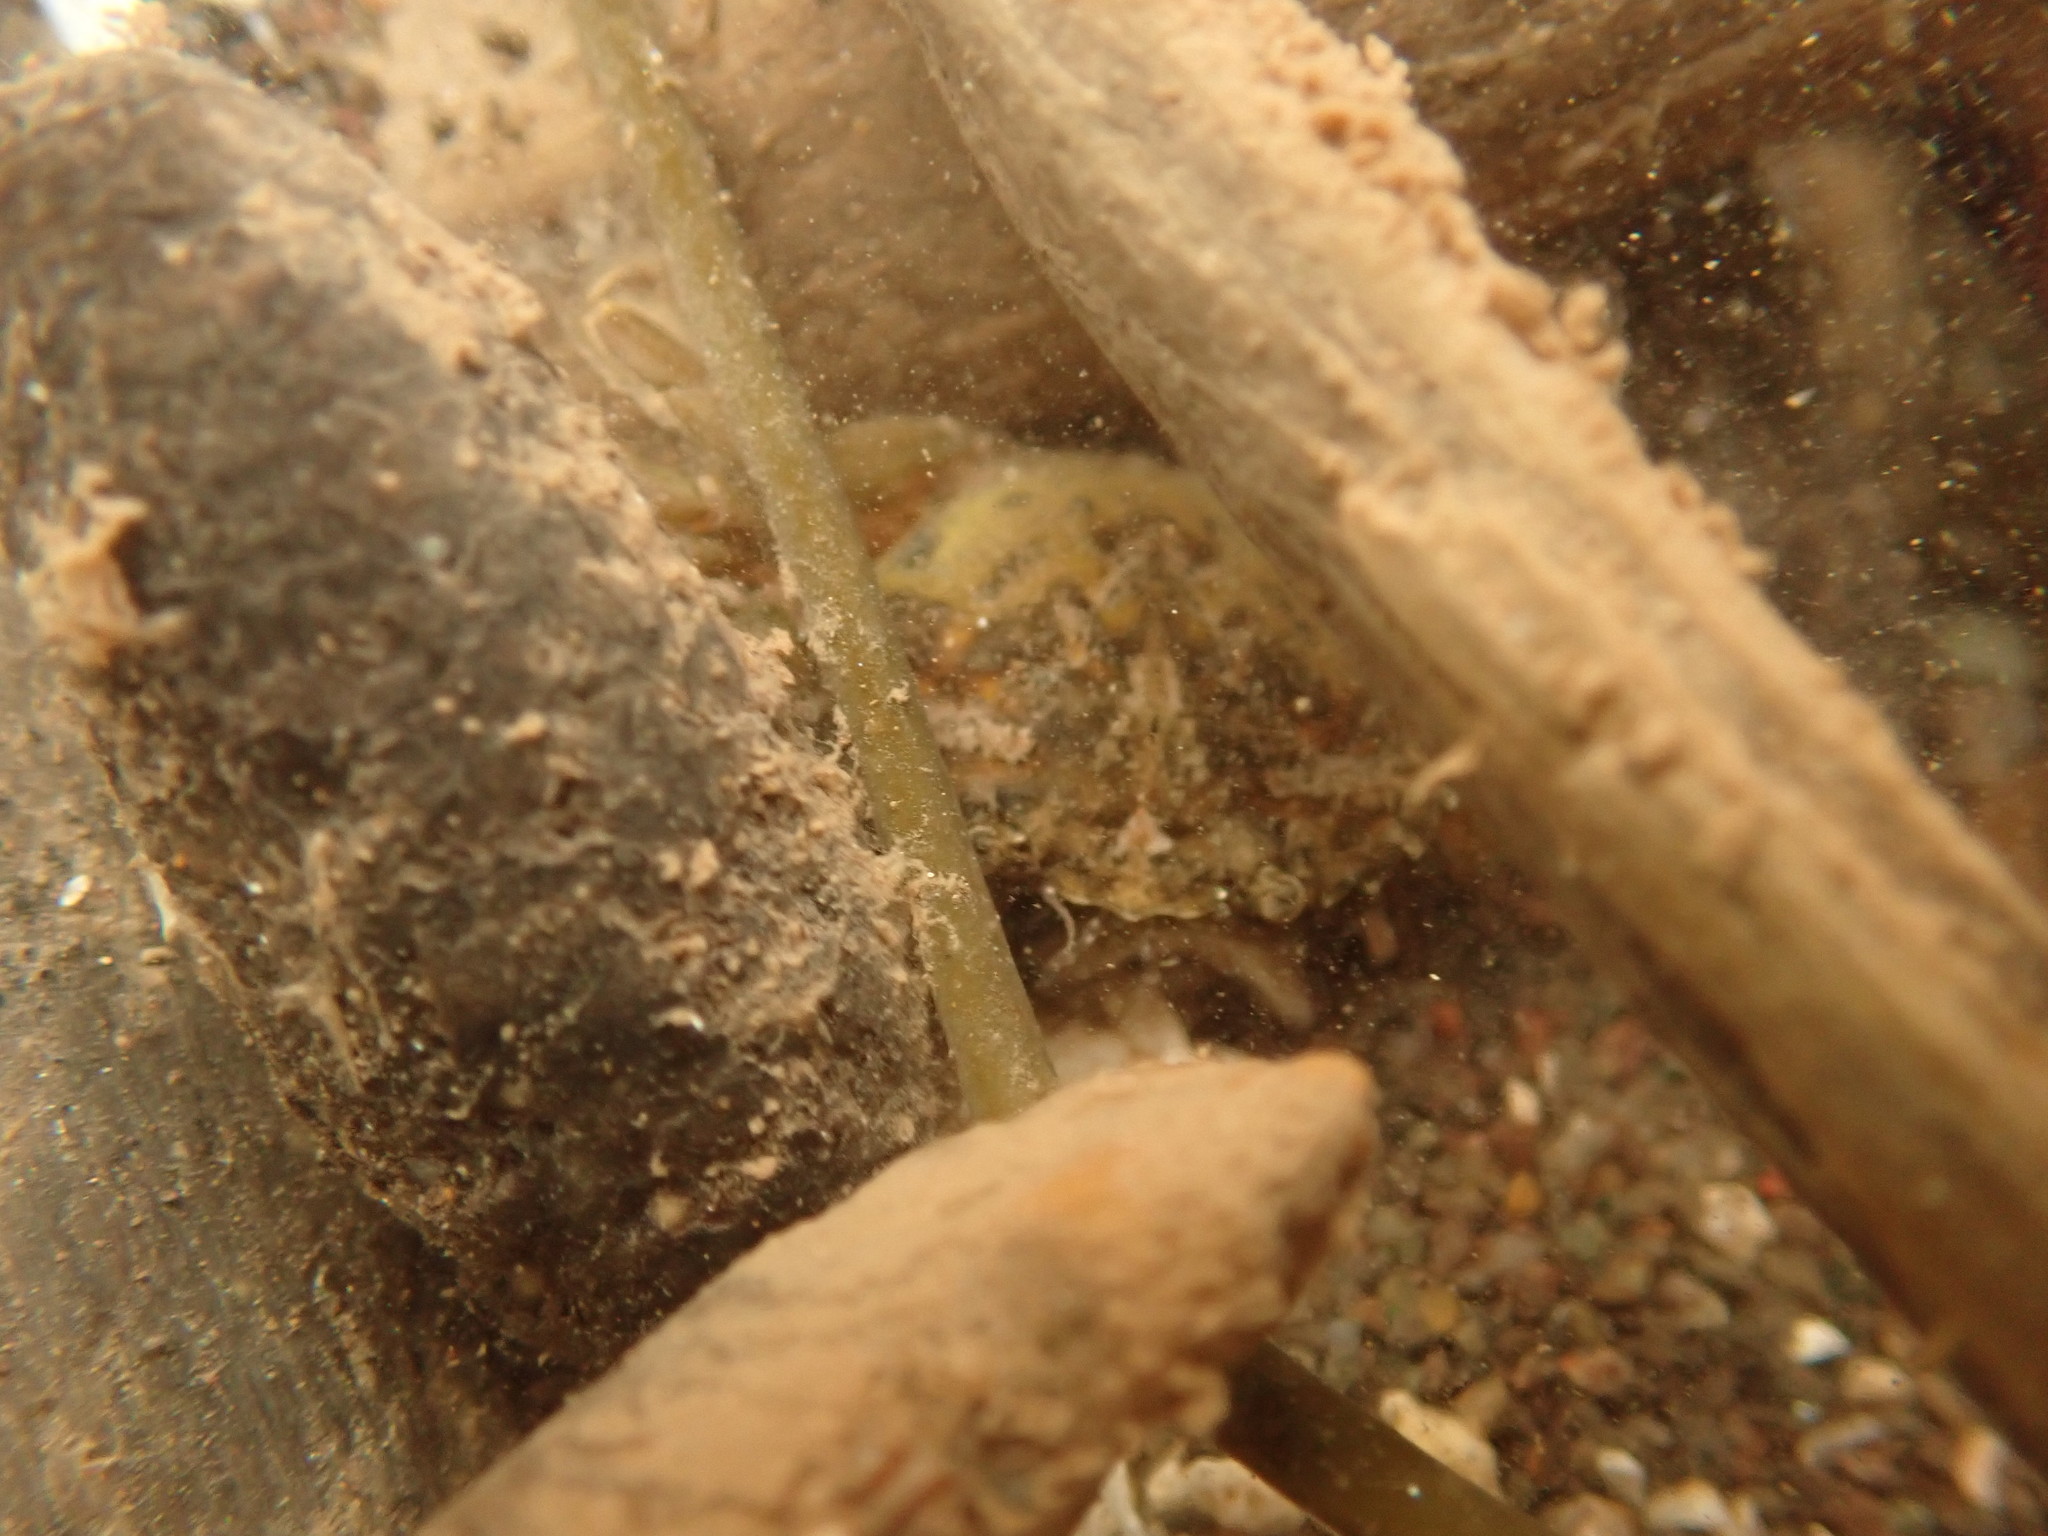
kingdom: Animalia
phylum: Arthropoda
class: Malacostraca
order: Decapoda
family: Carcinidae
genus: Carcinus
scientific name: Carcinus maenas
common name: European green crab
